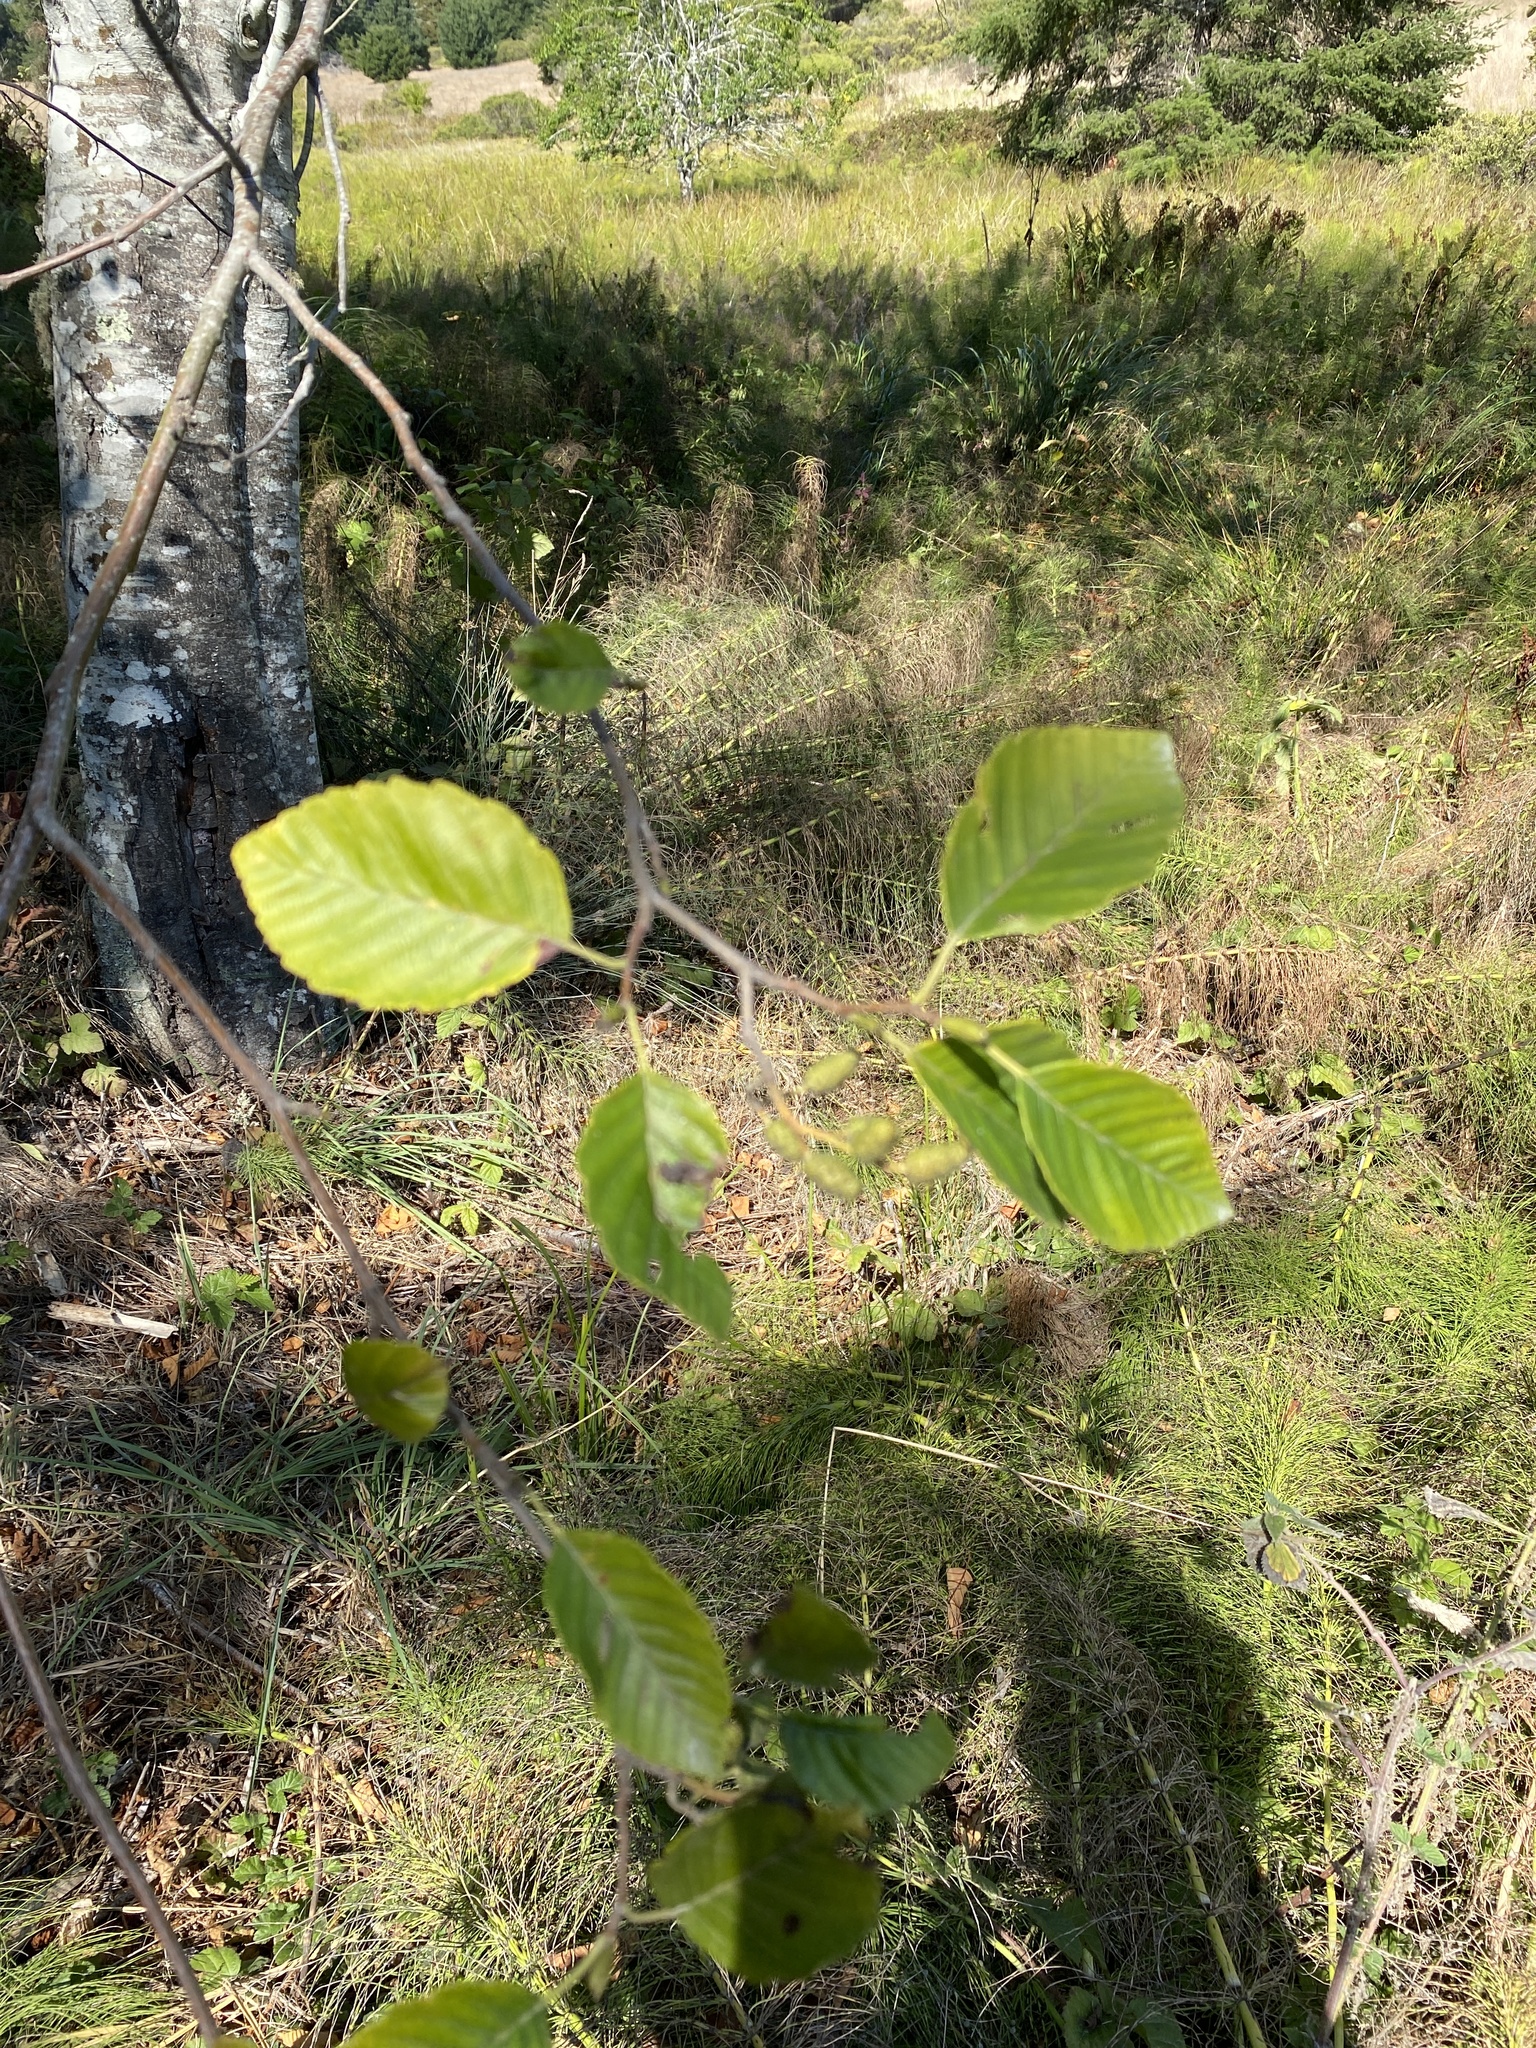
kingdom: Plantae
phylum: Tracheophyta
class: Magnoliopsida
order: Fagales
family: Betulaceae
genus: Alnus
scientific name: Alnus rubra
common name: Red alder
